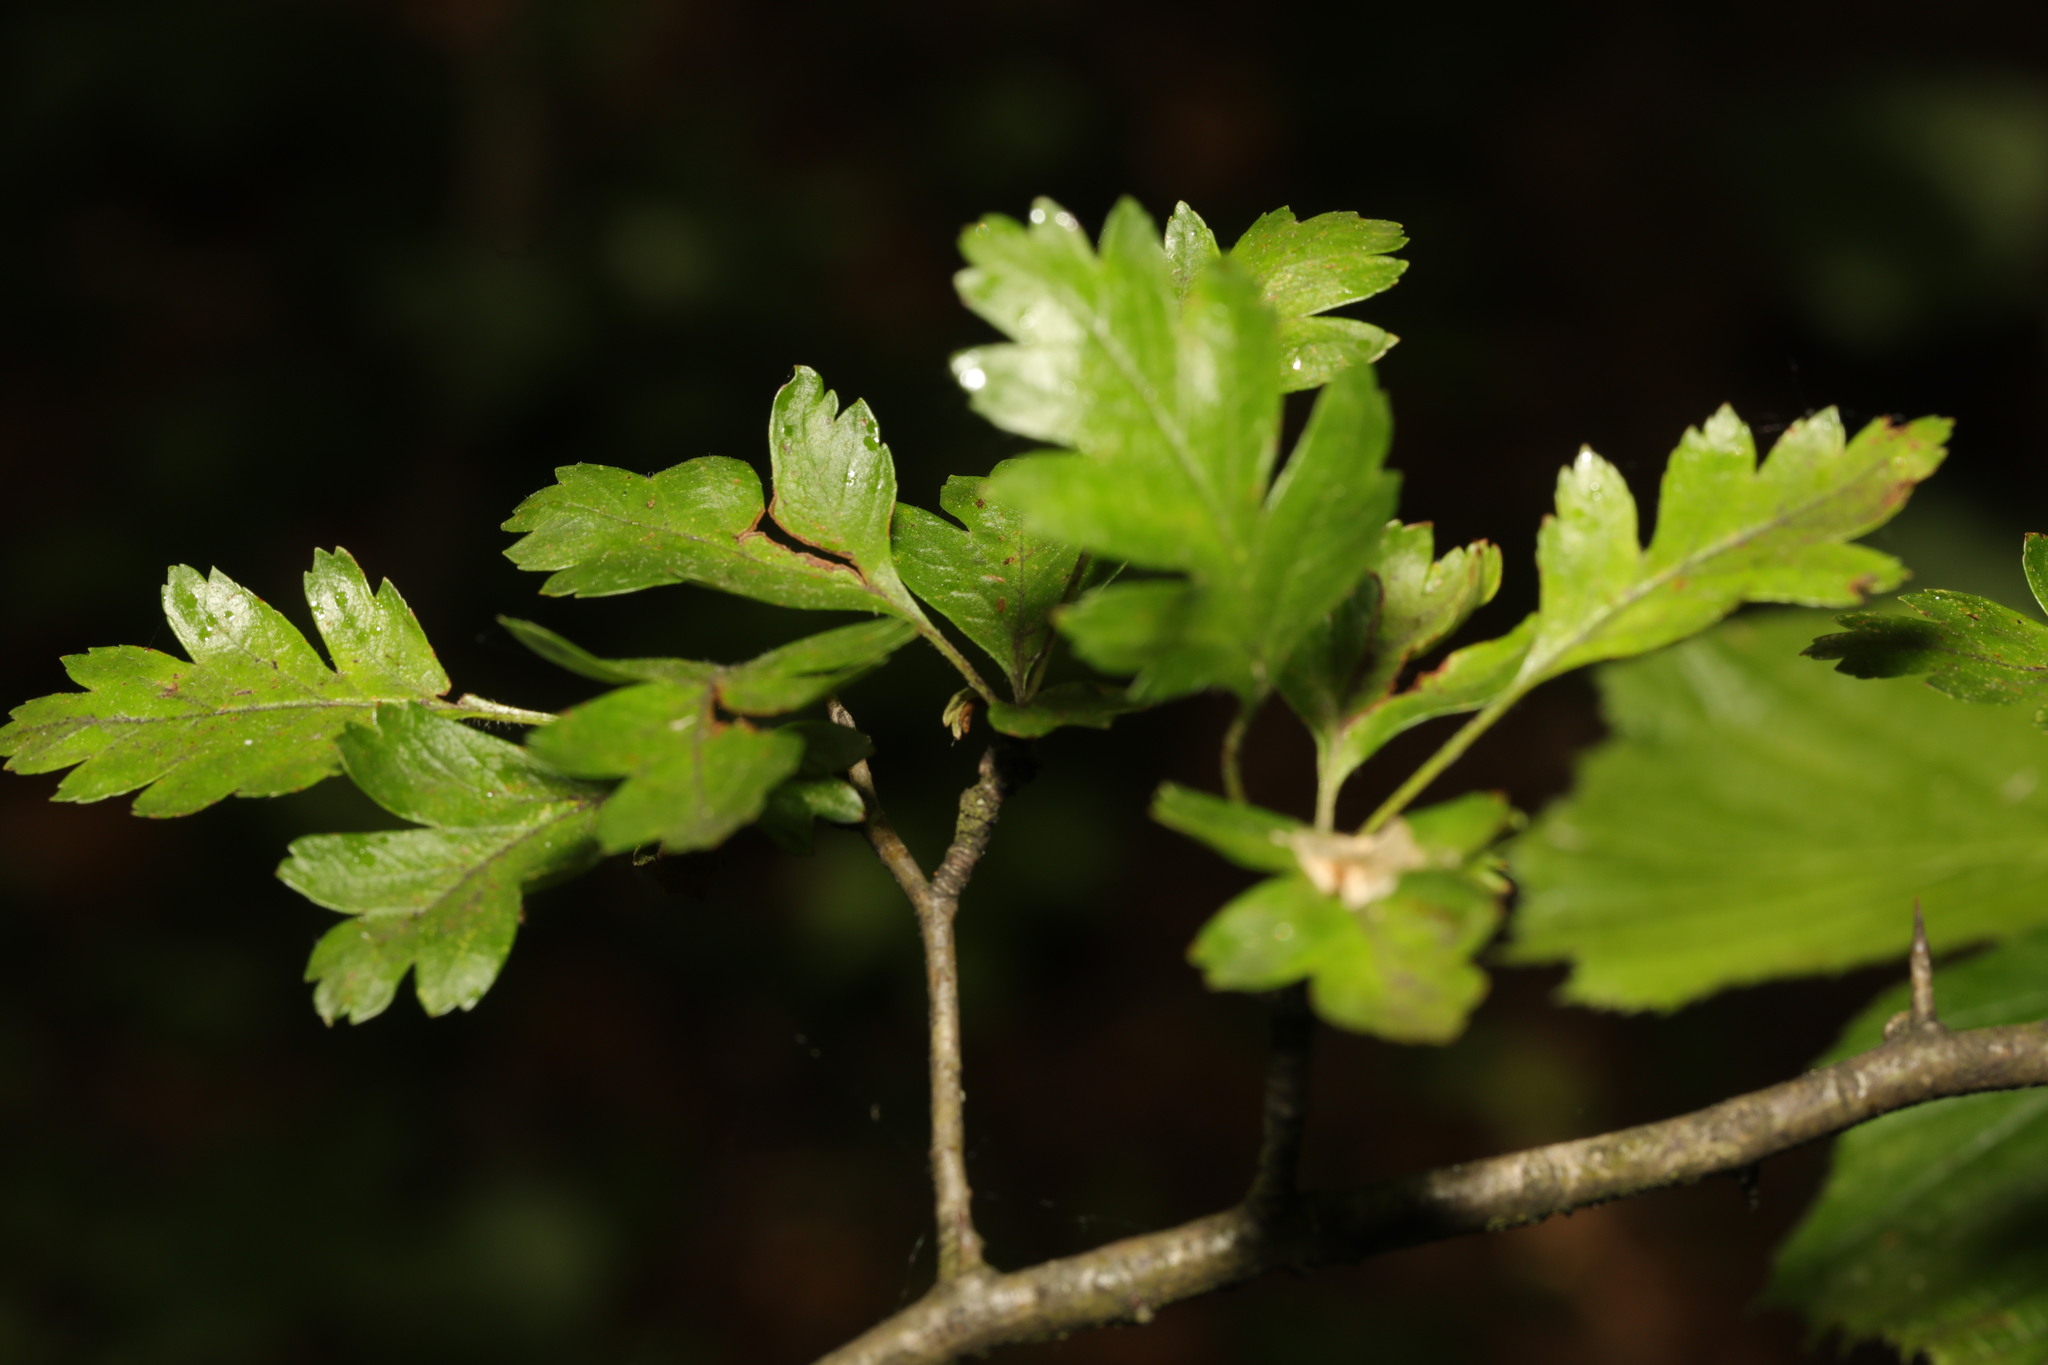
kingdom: Plantae
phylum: Tracheophyta
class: Magnoliopsida
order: Rosales
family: Rosaceae
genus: Crataegus
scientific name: Crataegus monogyna
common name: Hawthorn
